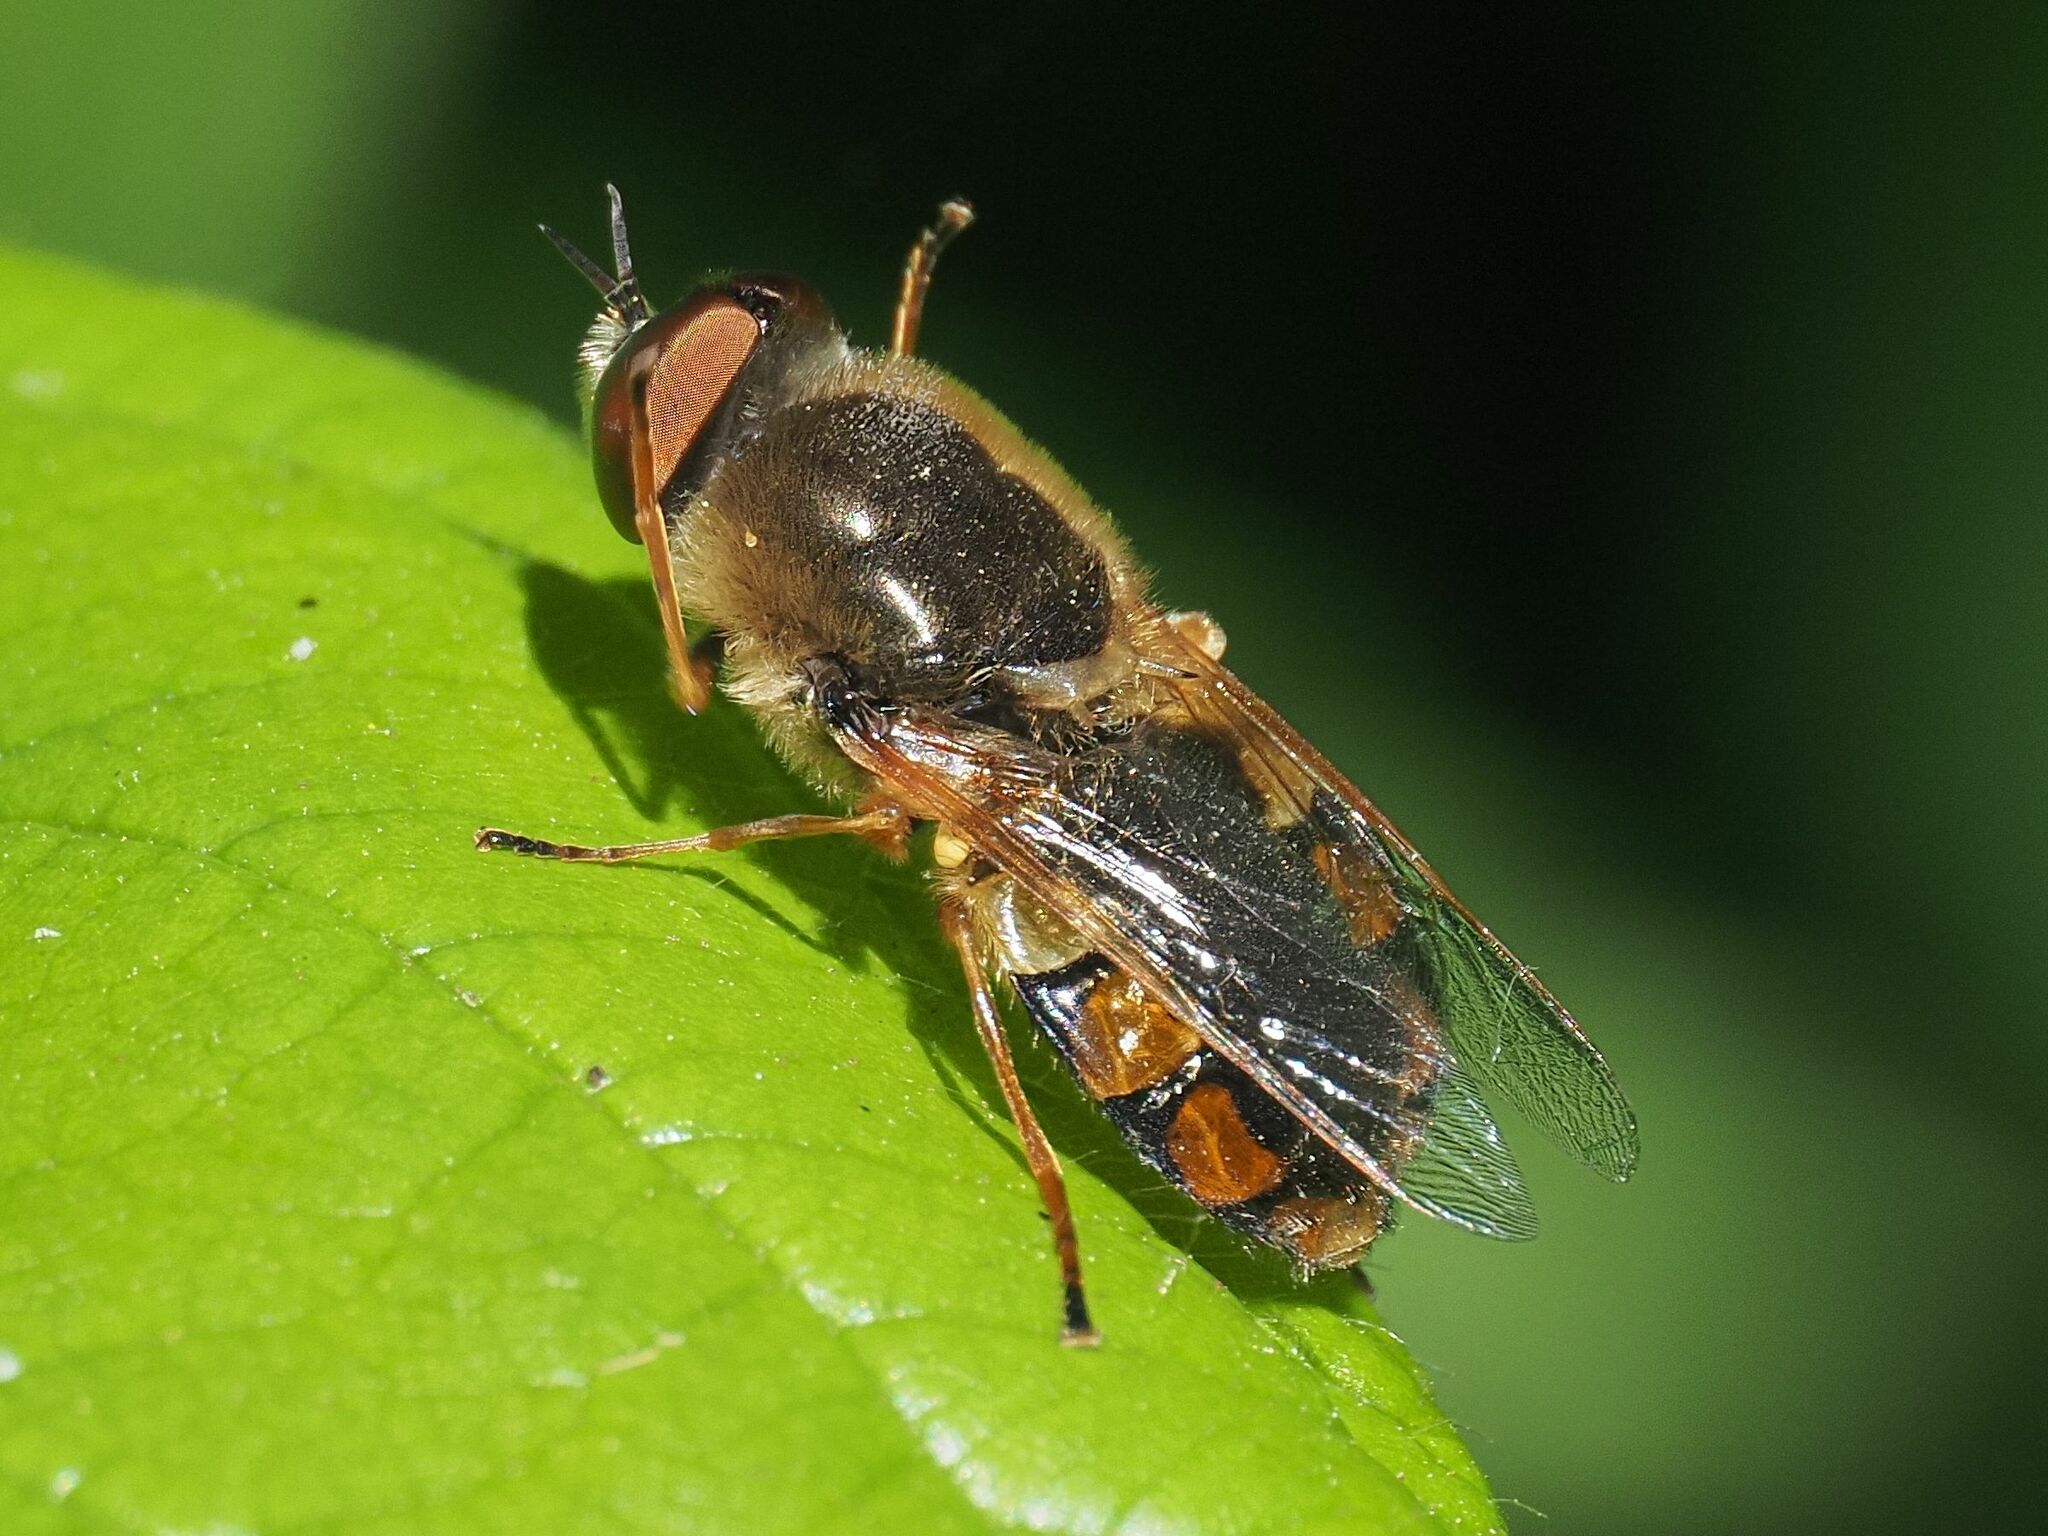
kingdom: Animalia
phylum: Arthropoda
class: Insecta
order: Diptera
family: Stratiomyidae
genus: Odontomyia
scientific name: Odontomyia ornata
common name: Ornate brigadier
